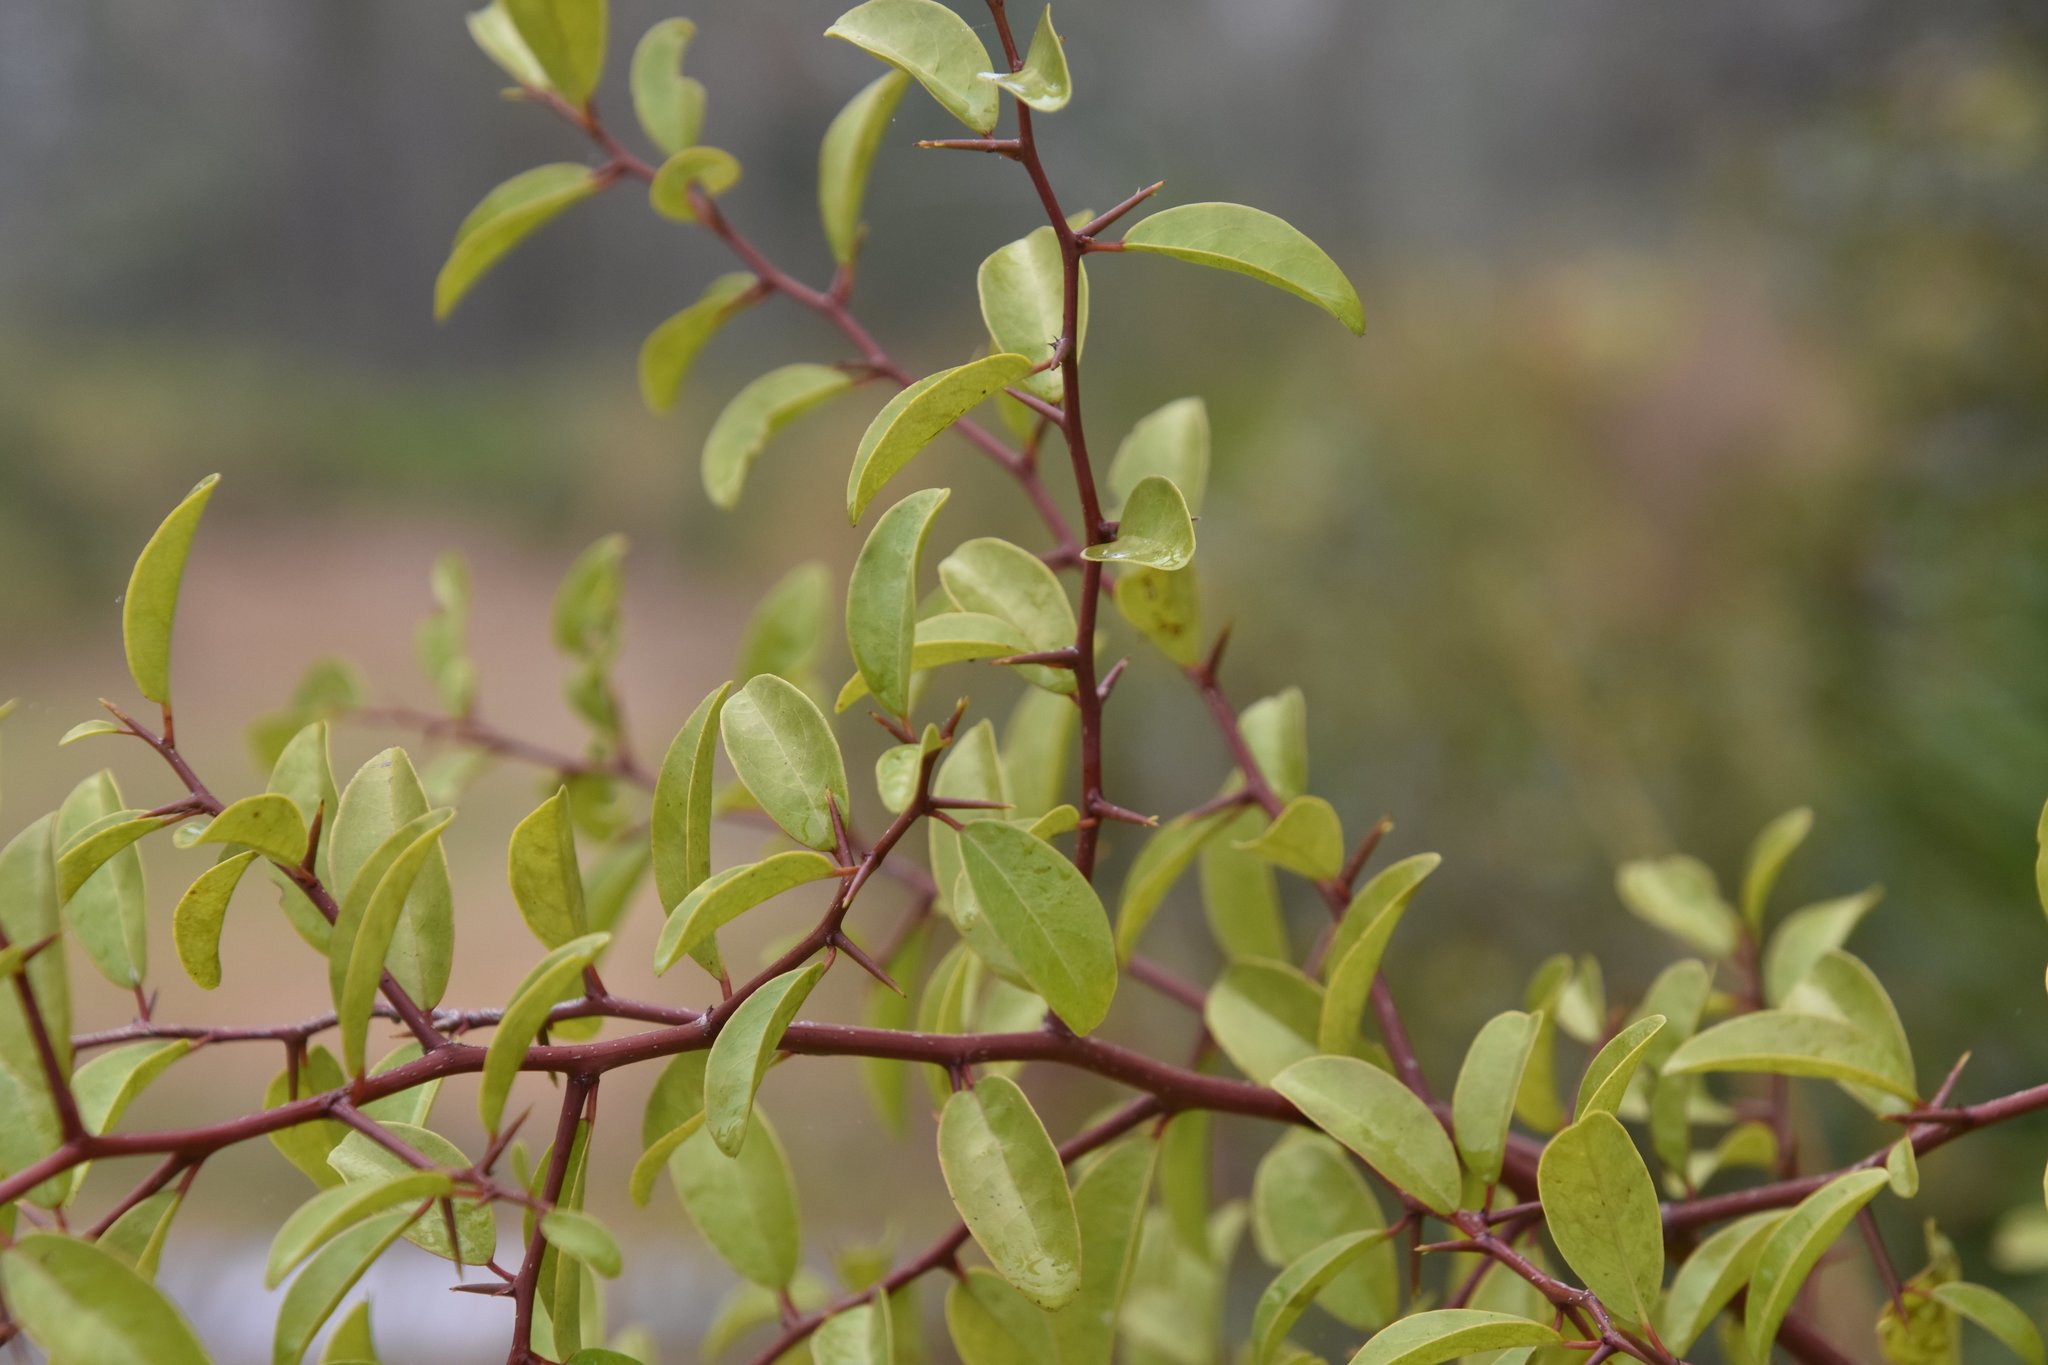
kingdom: Plantae
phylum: Tracheophyta
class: Magnoliopsida
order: Santalales
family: Ximeniaceae
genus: Ximenia
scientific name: Ximenia americana
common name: Tallowwood
